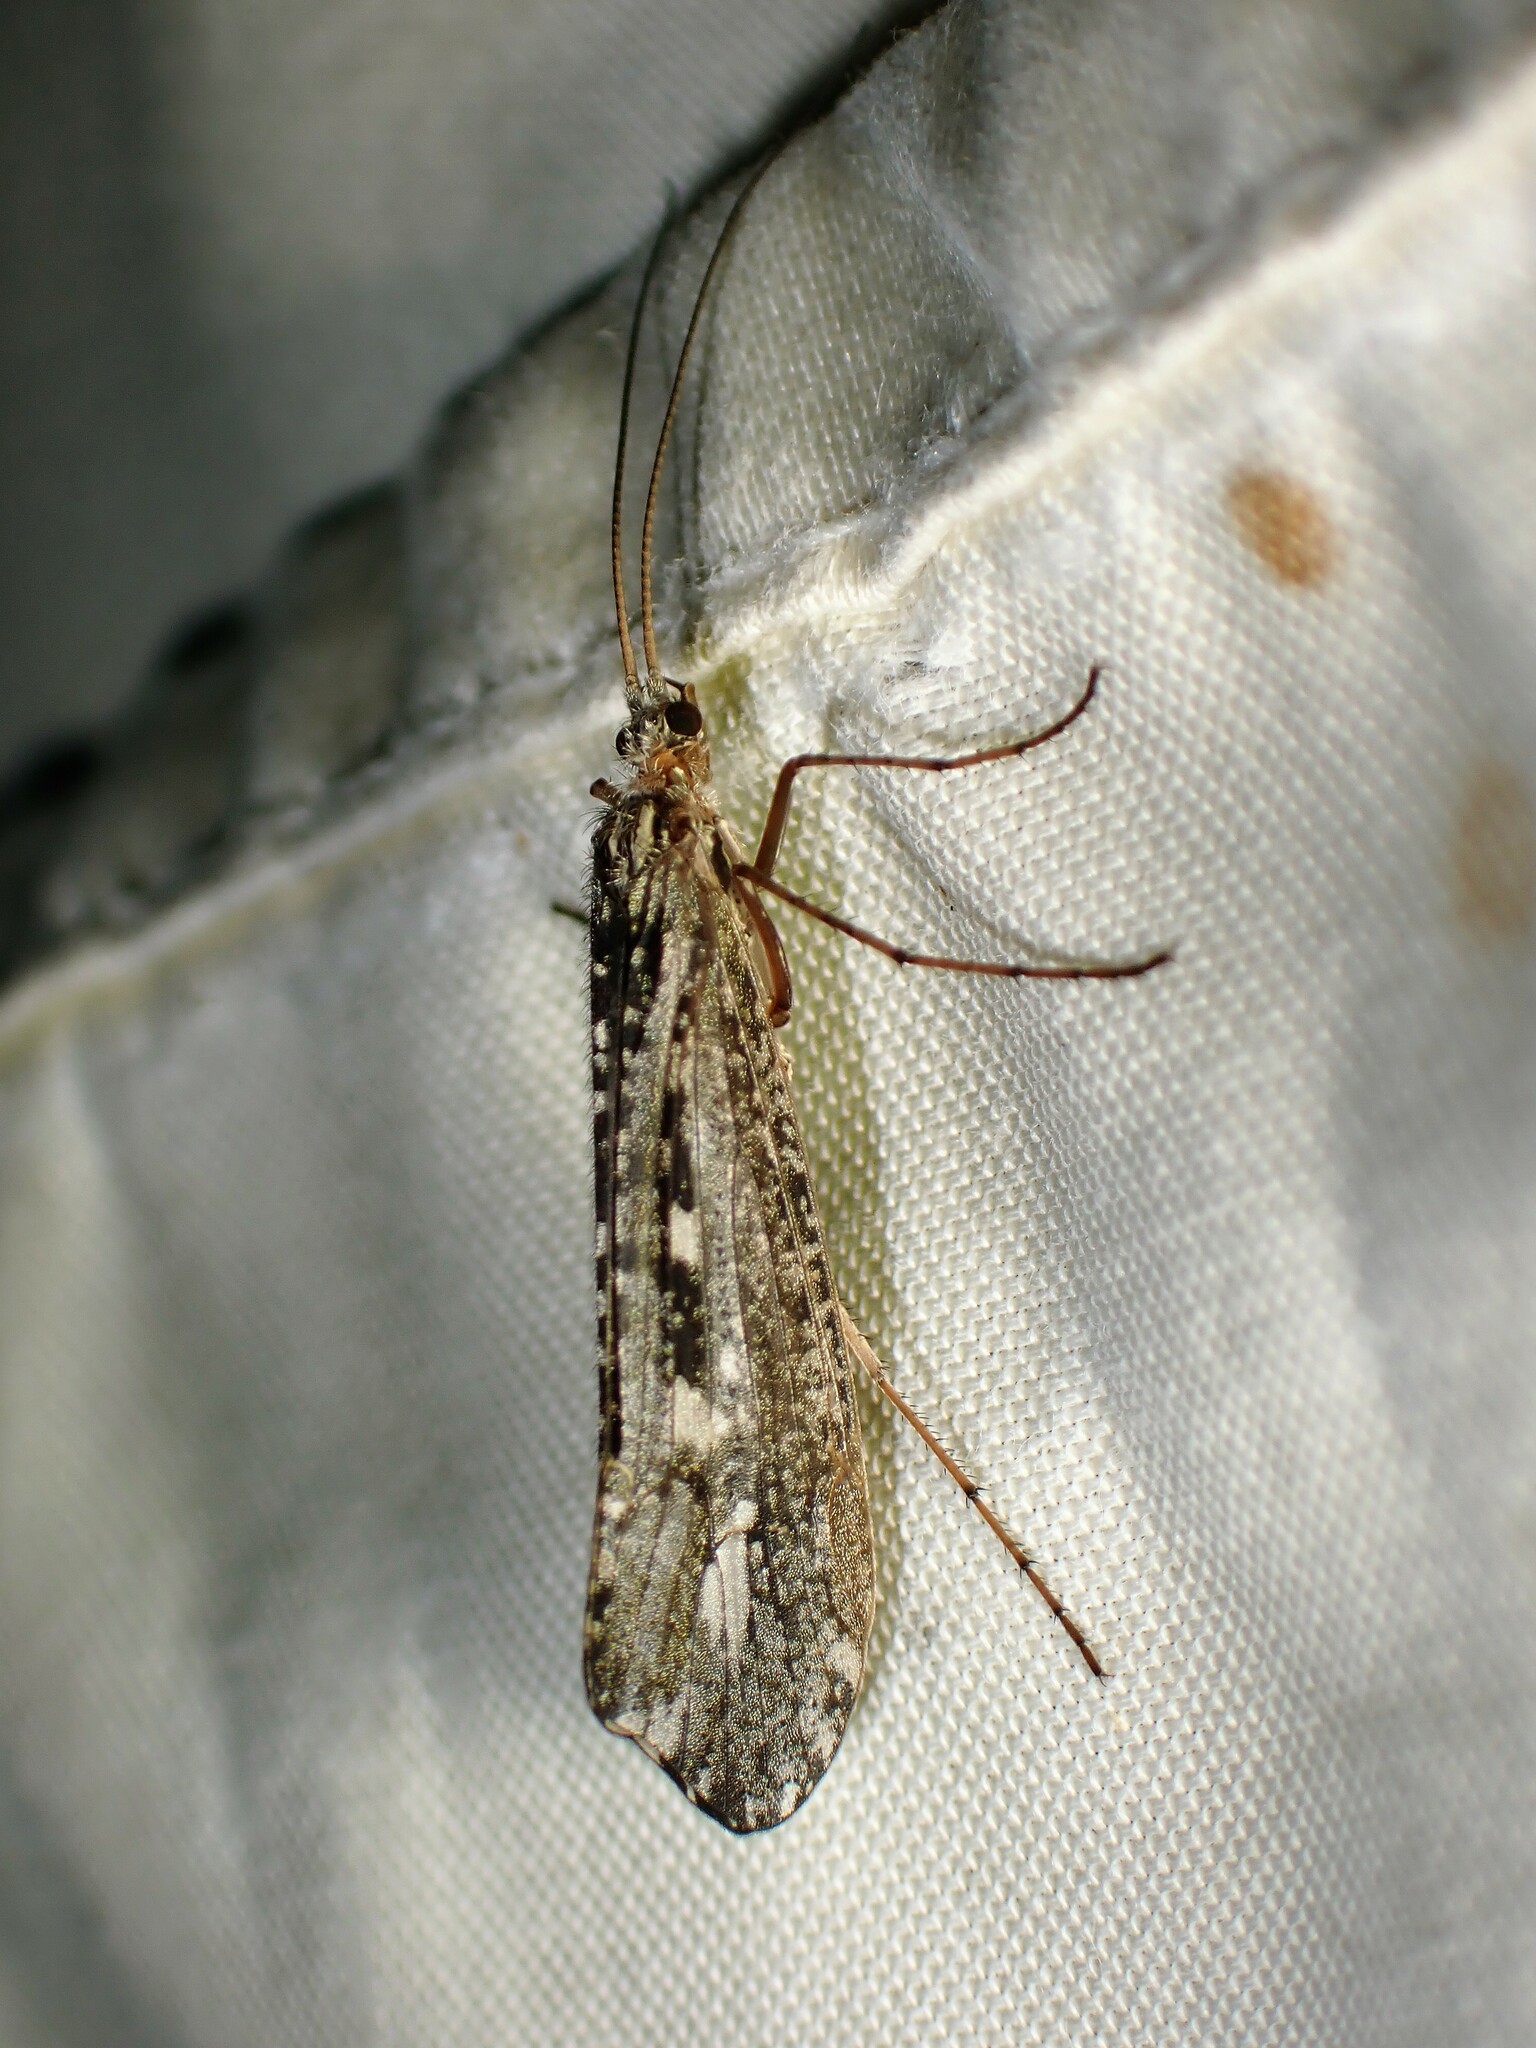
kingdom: Animalia
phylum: Arthropoda
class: Insecta
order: Trichoptera
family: Limnephilidae
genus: Glyphopsyche
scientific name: Glyphopsyche irrorata
